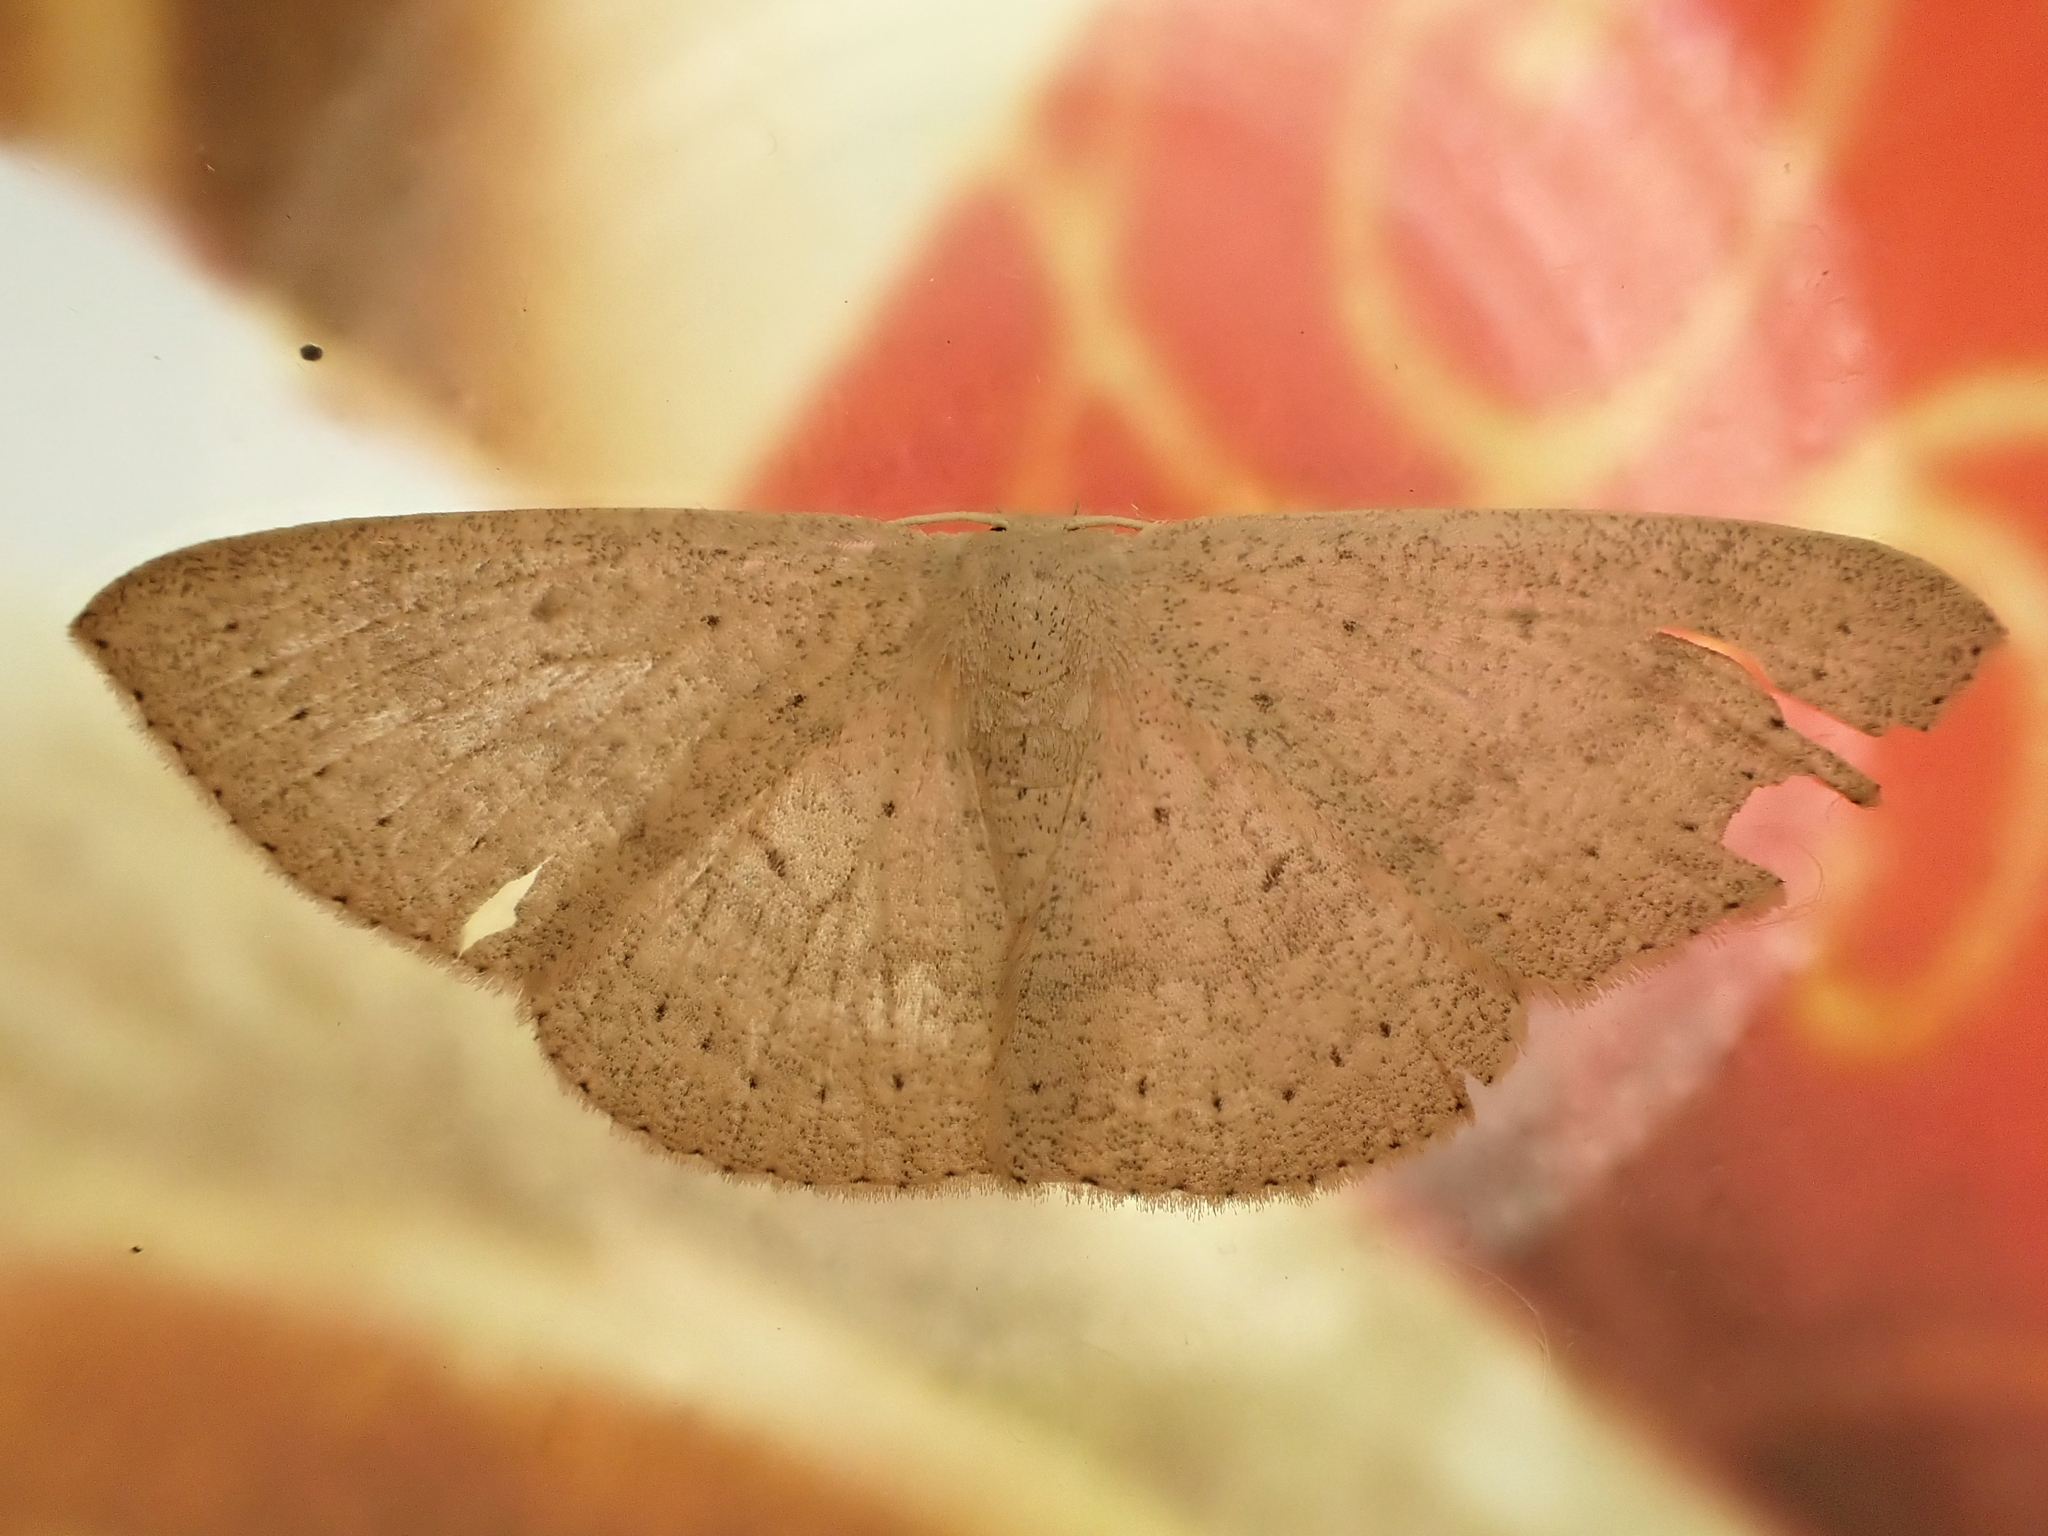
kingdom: Animalia
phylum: Arthropoda
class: Insecta
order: Lepidoptera
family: Geometridae
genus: Cyclophora
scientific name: Cyclophora obstataria
